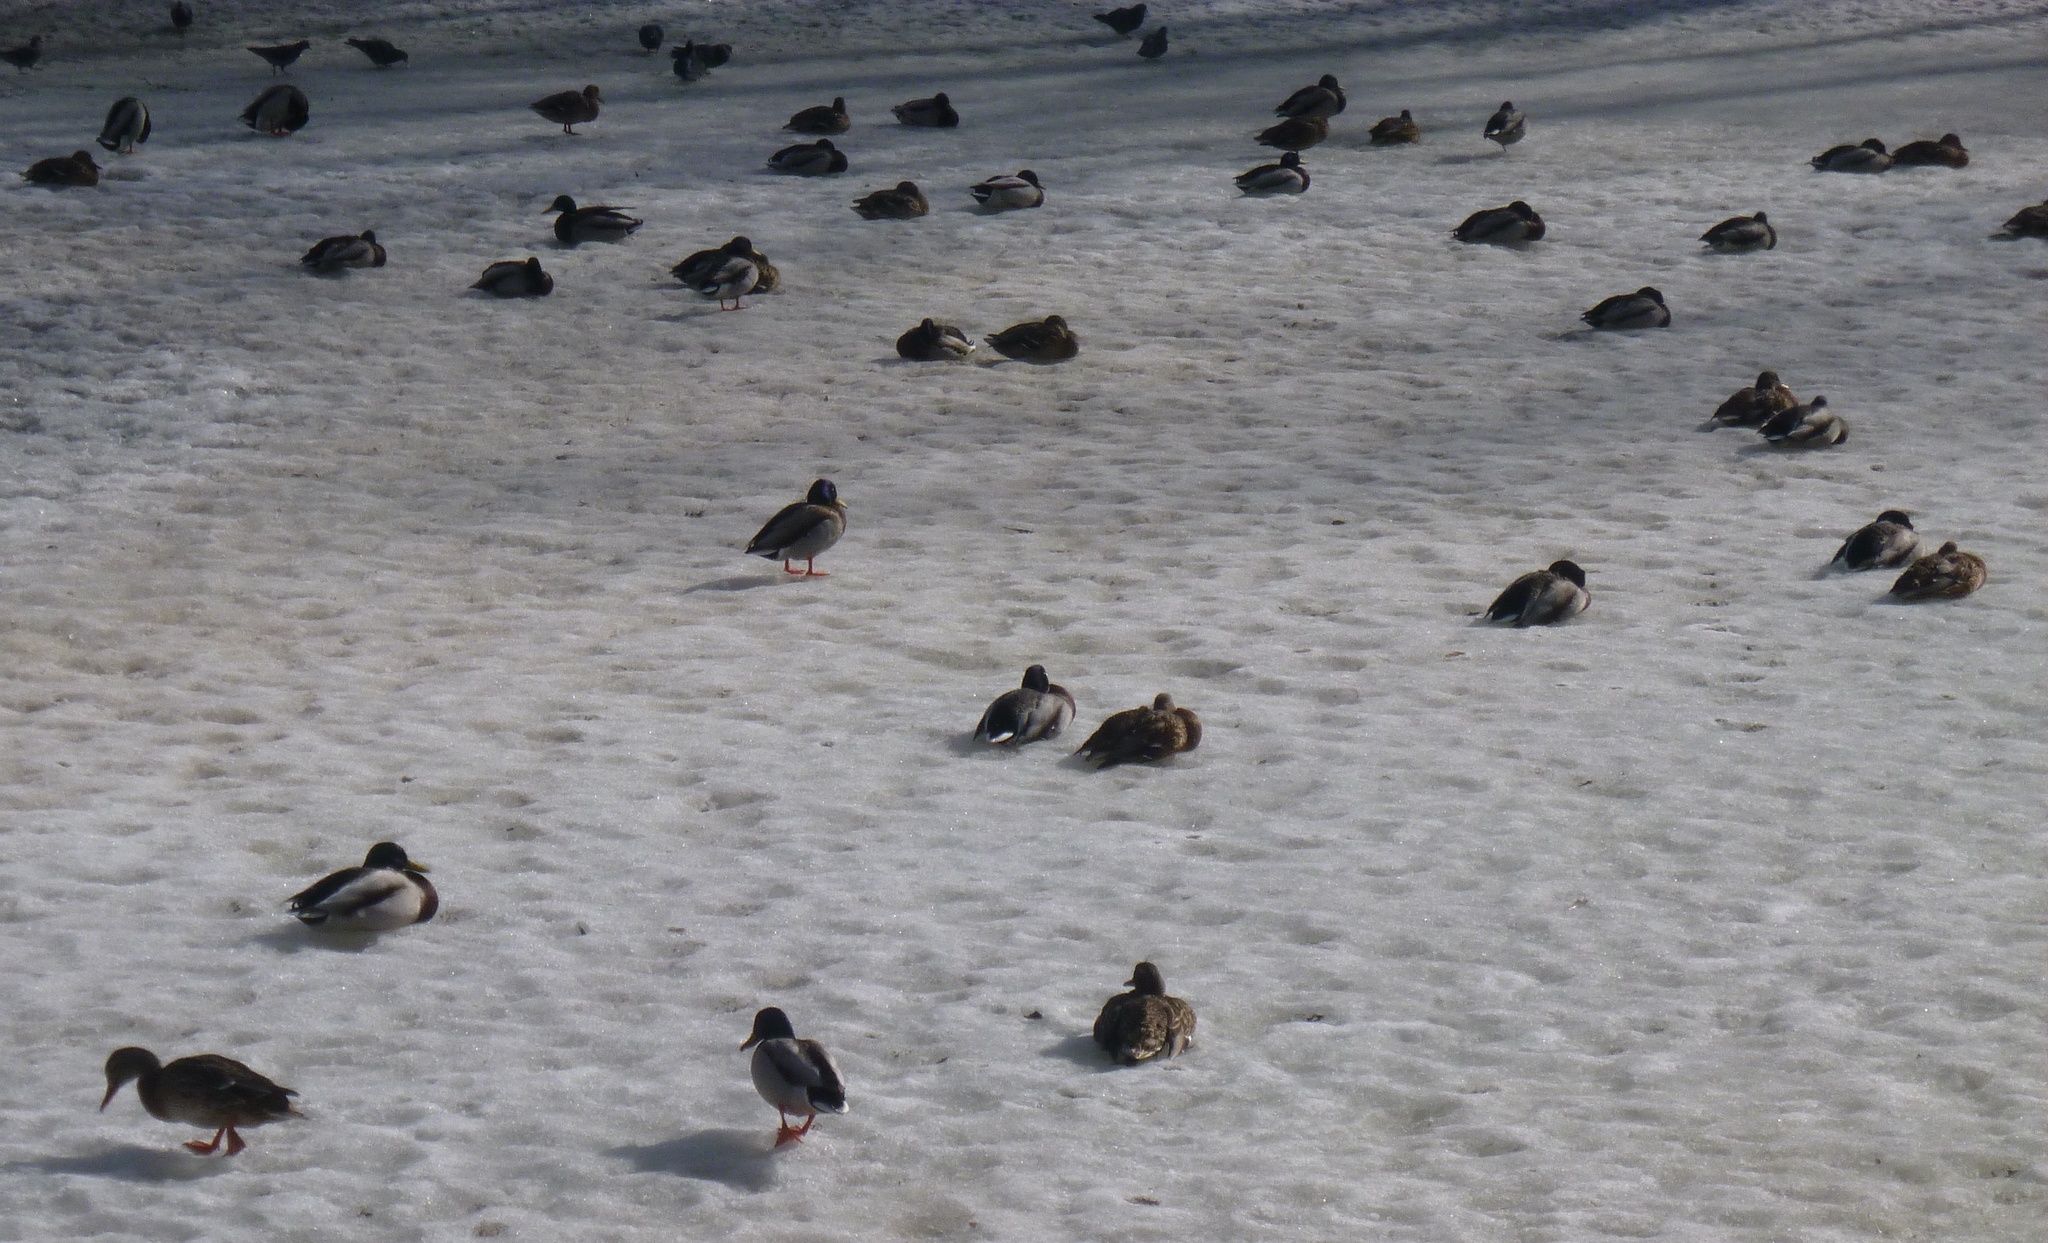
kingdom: Animalia
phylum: Chordata
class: Aves
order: Anseriformes
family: Anatidae
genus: Anas
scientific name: Anas platyrhynchos
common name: Mallard
